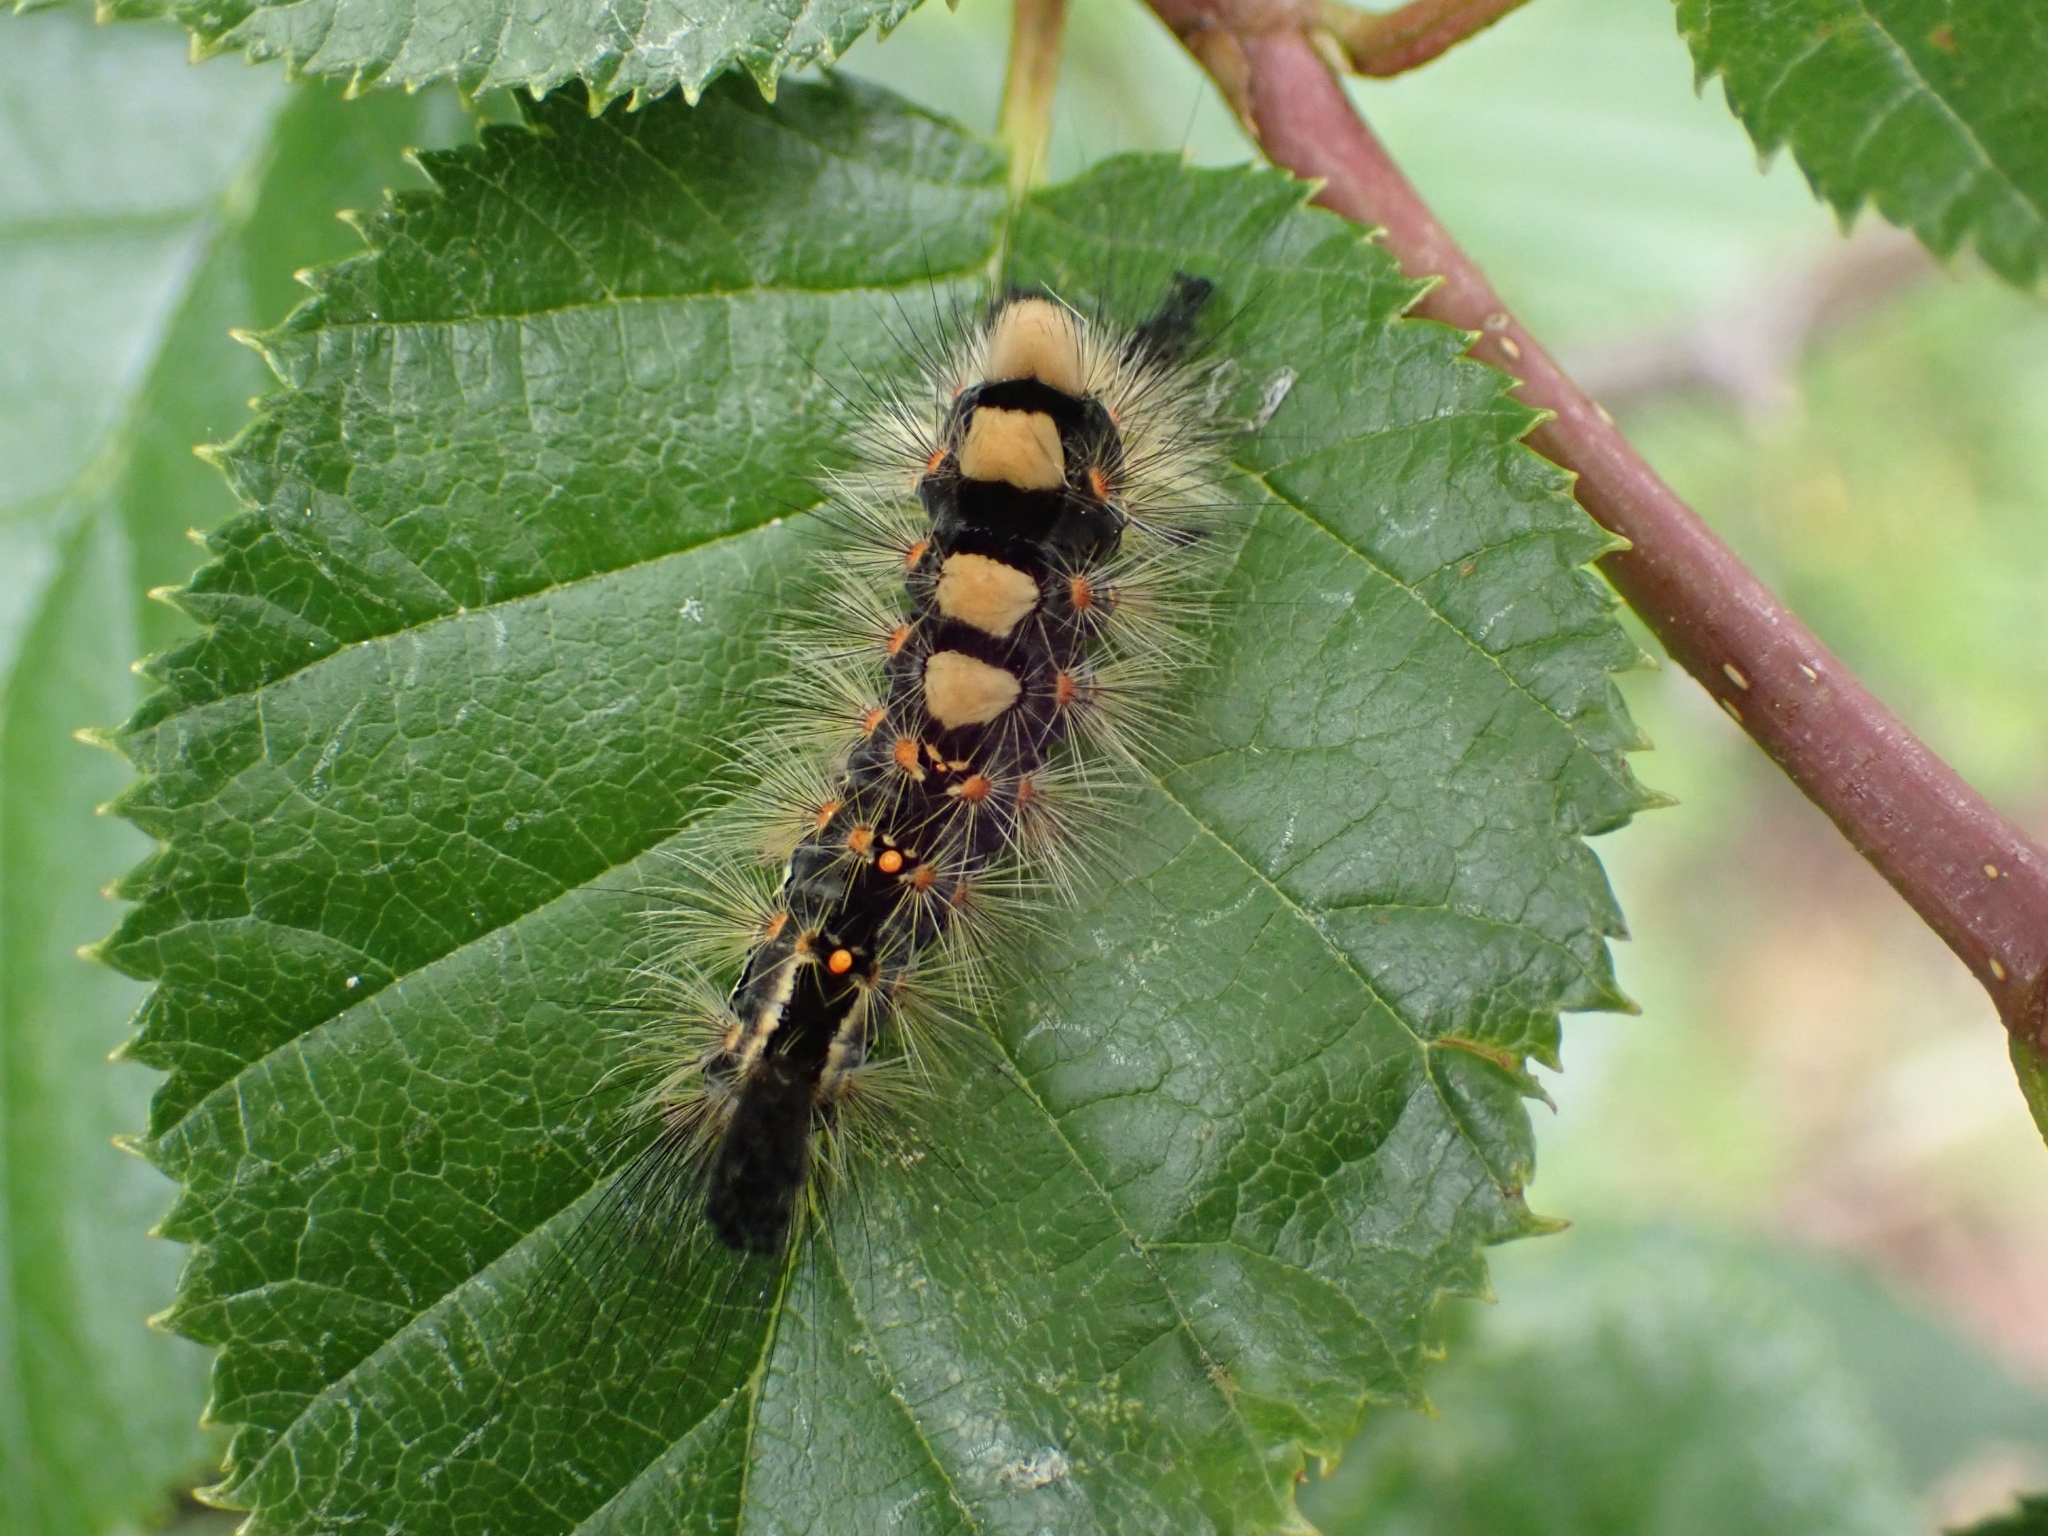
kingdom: Animalia
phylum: Arthropoda
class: Insecta
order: Lepidoptera
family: Erebidae
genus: Orgyia
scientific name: Orgyia antiqua
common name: Vapourer
